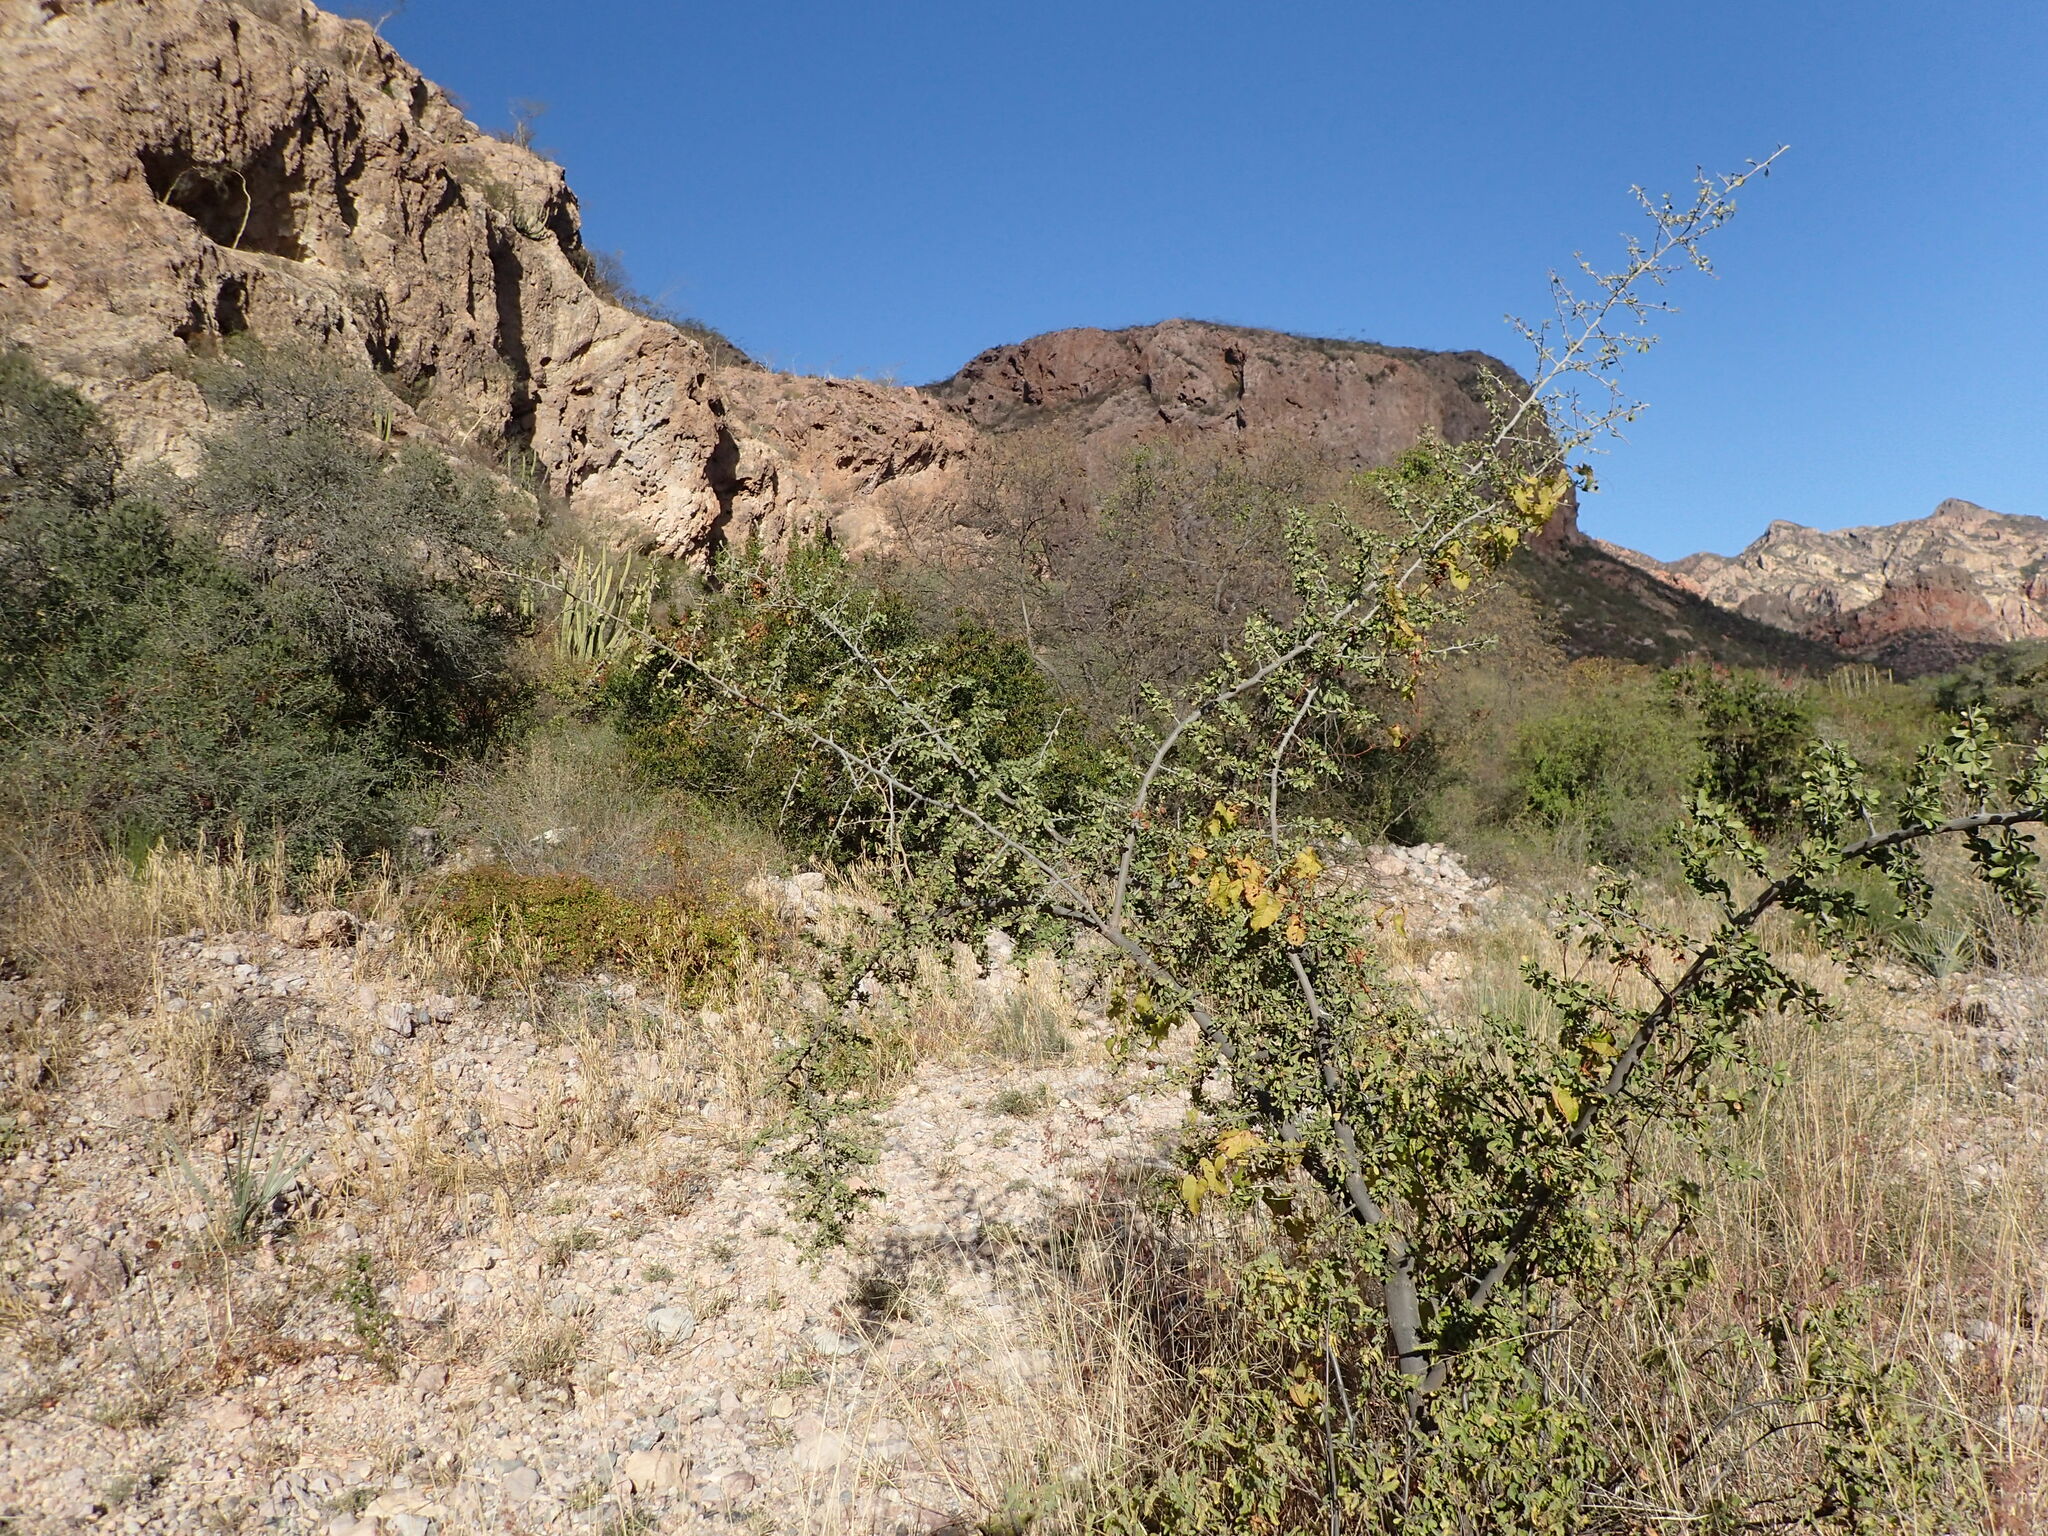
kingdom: Plantae
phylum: Tracheophyta
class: Magnoliopsida
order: Ericales
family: Sapotaceae
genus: Sideroxylon
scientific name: Sideroxylon occidentale
